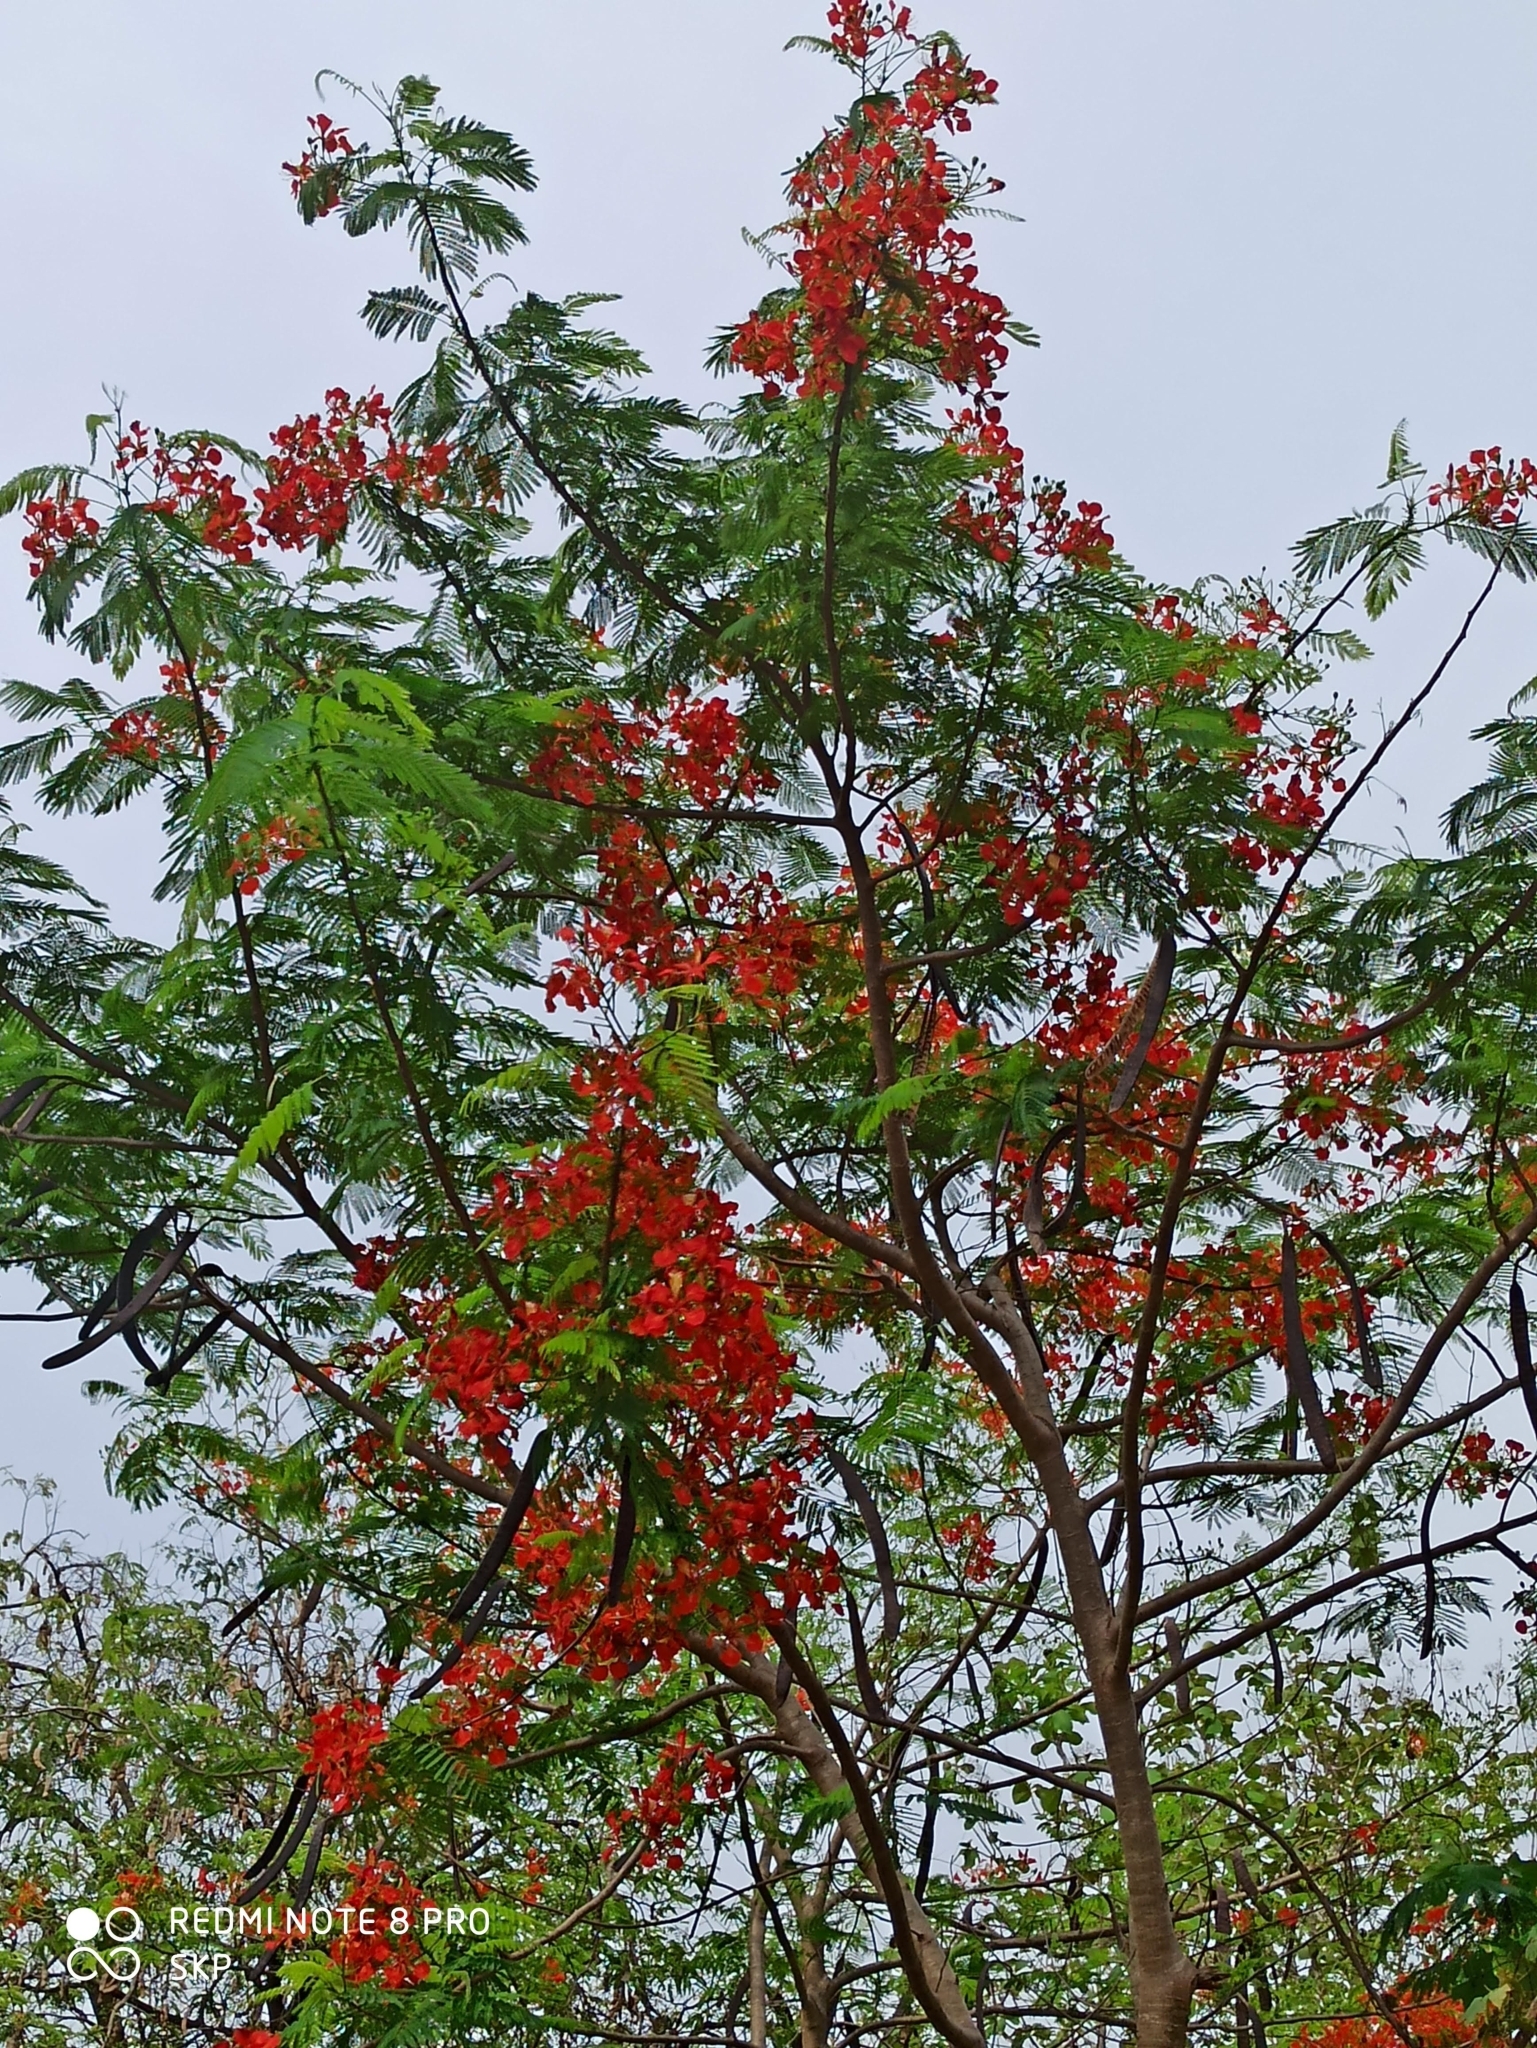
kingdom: Plantae
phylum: Tracheophyta
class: Magnoliopsida
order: Fabales
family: Fabaceae
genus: Delonix
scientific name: Delonix regia
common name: Royal poinciana
